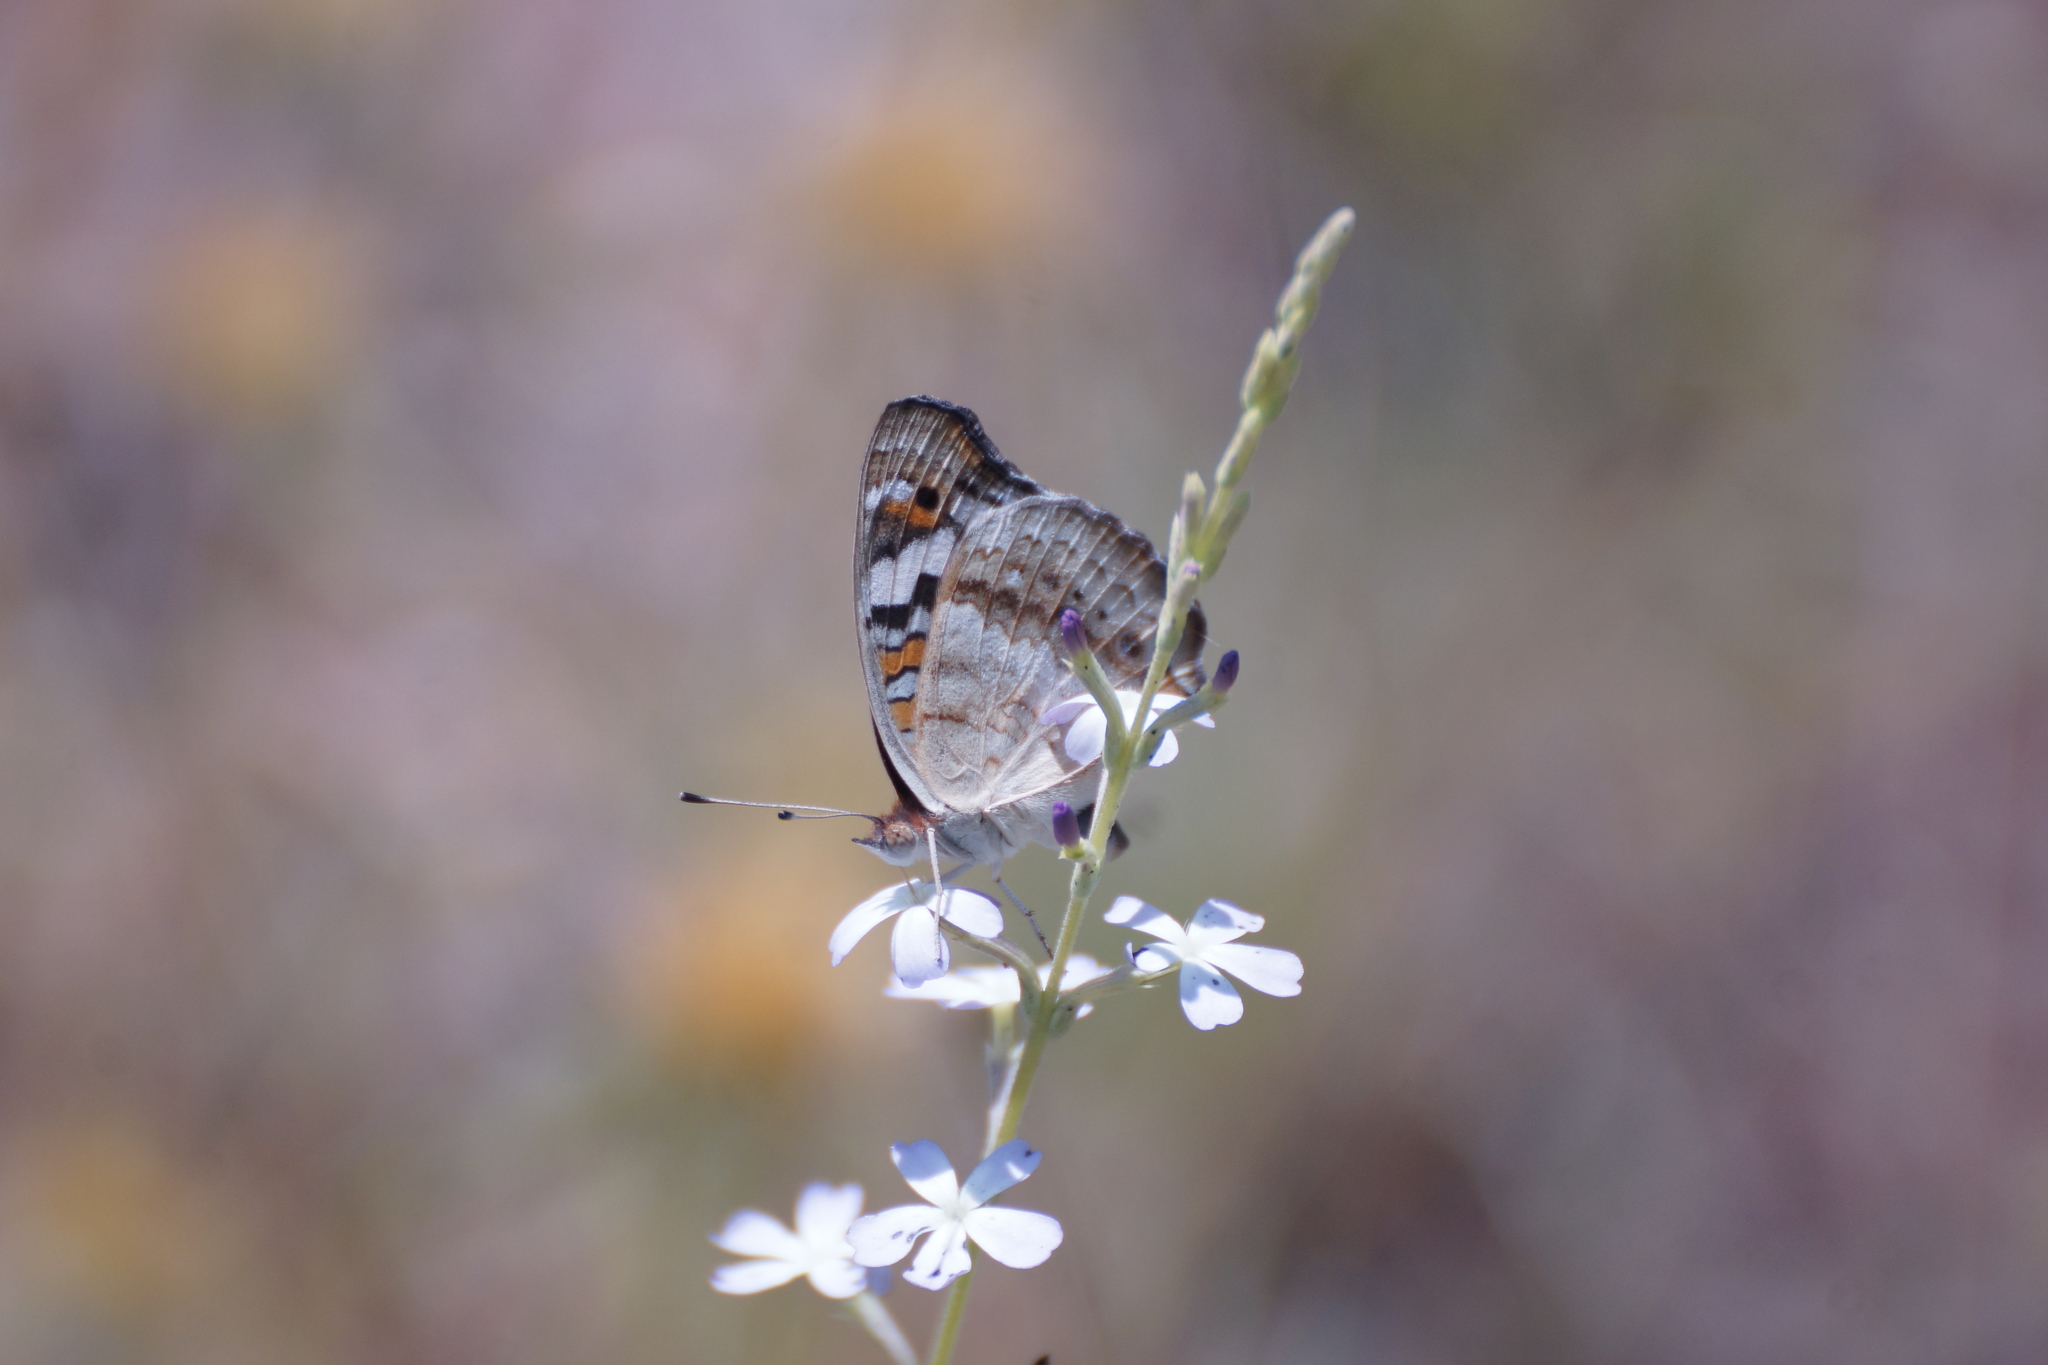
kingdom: Animalia
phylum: Arthropoda
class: Insecta
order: Lepidoptera
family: Nymphalidae
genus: Junonia
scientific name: Junonia orithya
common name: Blue pansy
